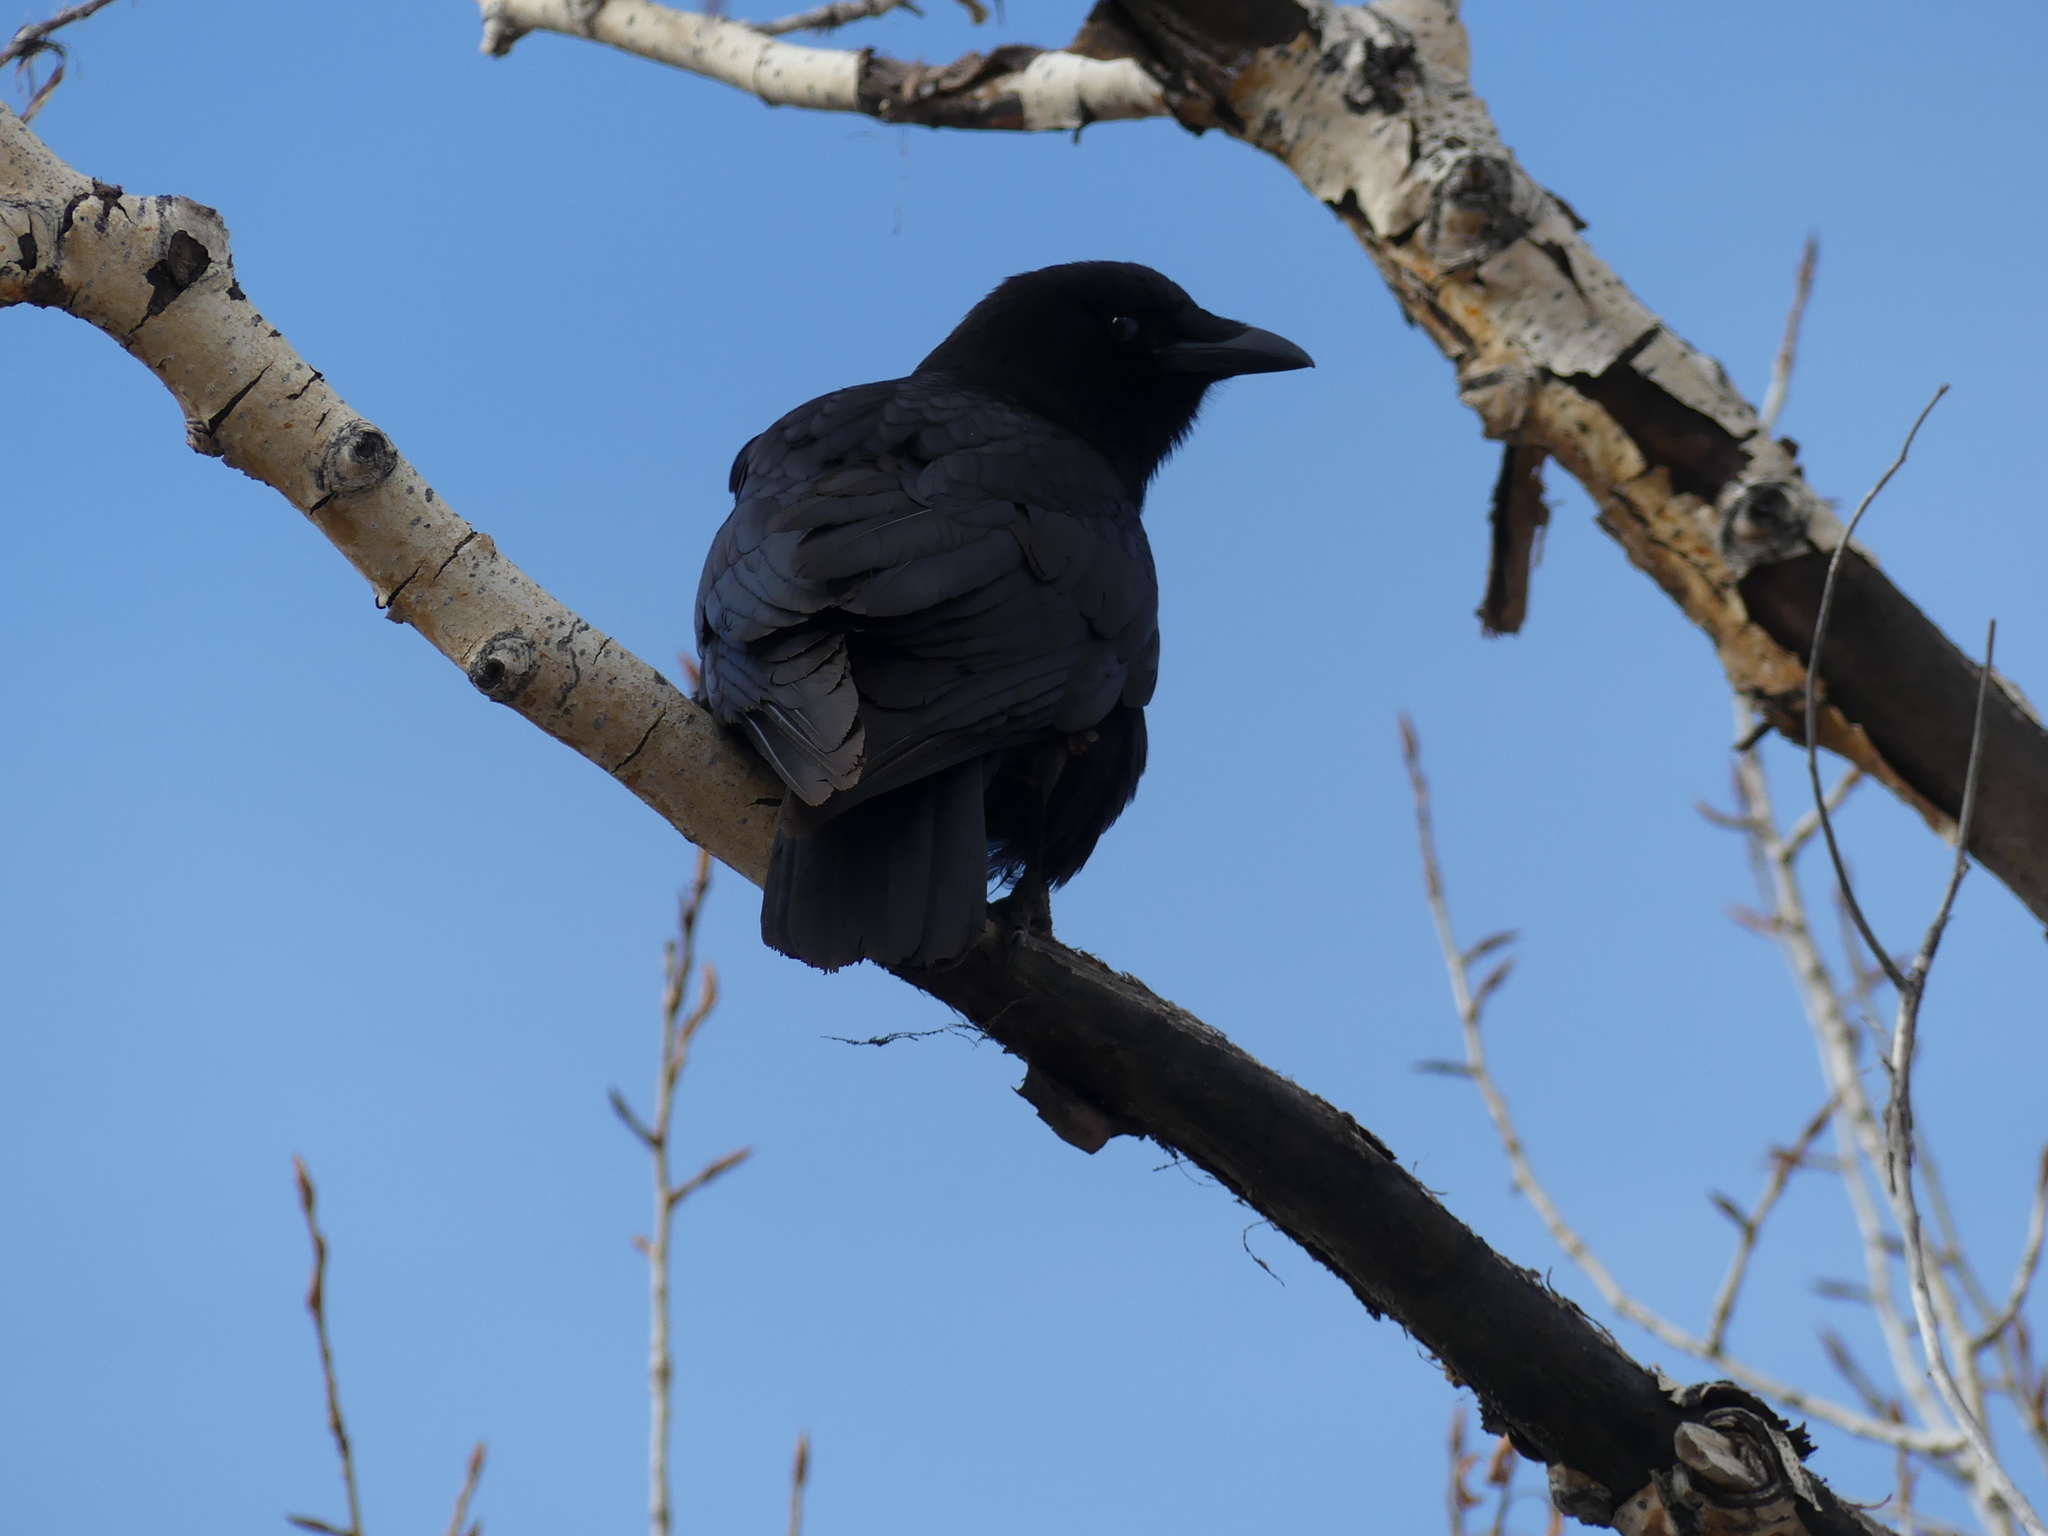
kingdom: Animalia
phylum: Chordata
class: Aves
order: Passeriformes
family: Corvidae
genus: Corvus
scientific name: Corvus brachyrhynchos
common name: American crow
